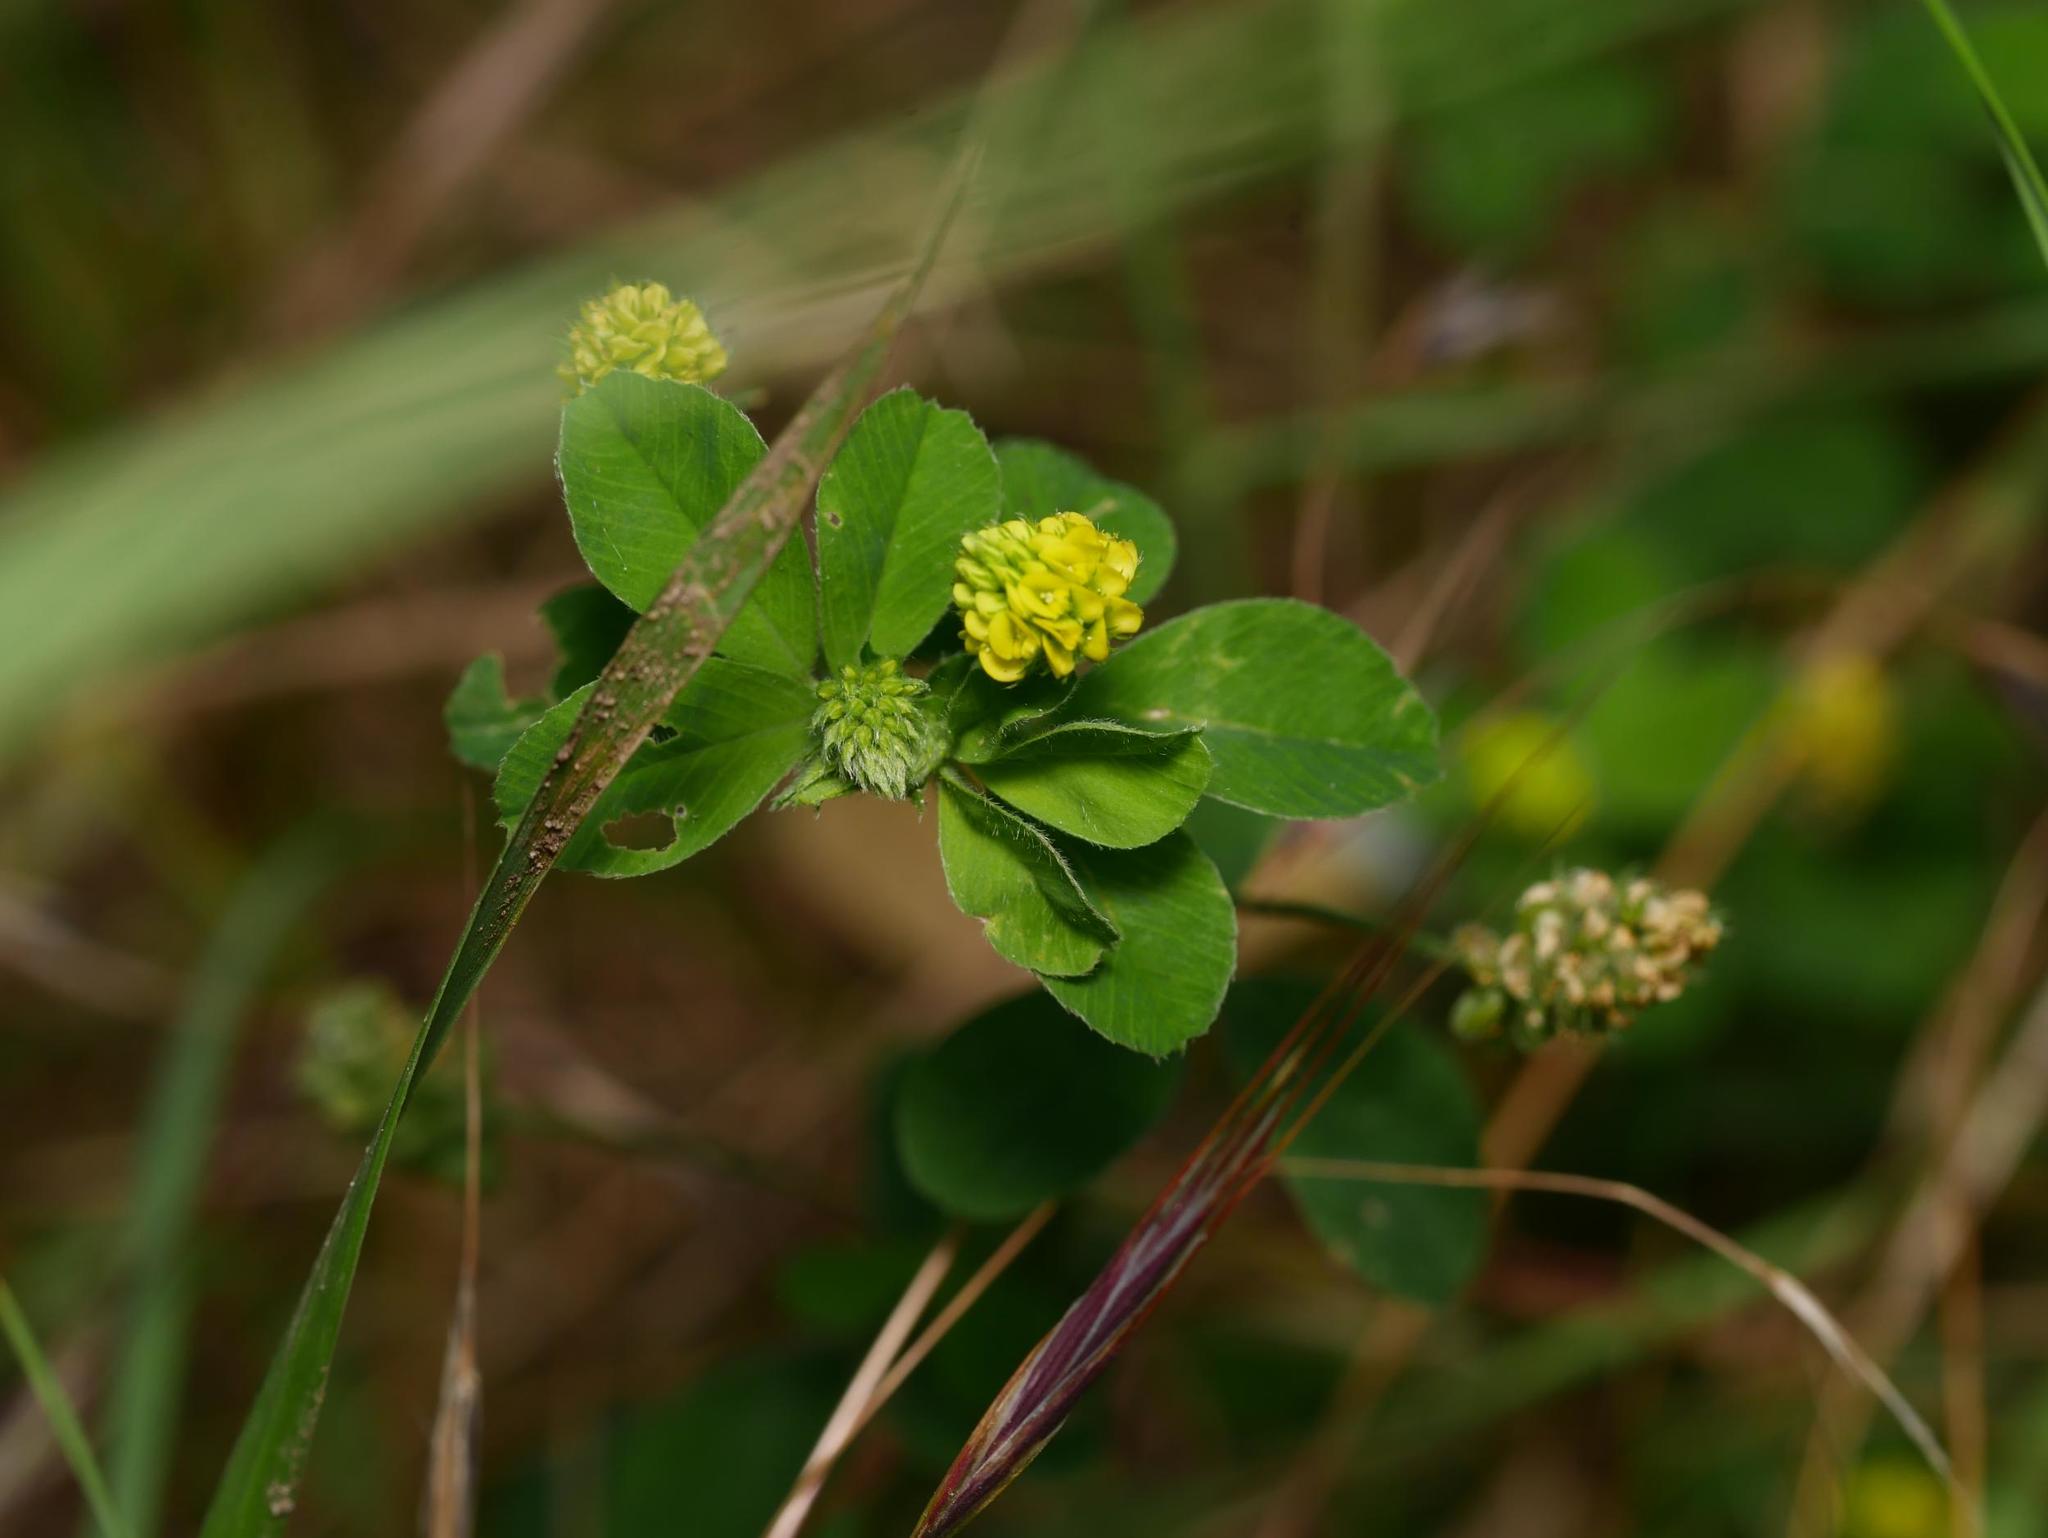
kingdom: Plantae
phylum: Tracheophyta
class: Magnoliopsida
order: Fabales
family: Fabaceae
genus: Medicago
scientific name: Medicago lupulina
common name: Black medick
